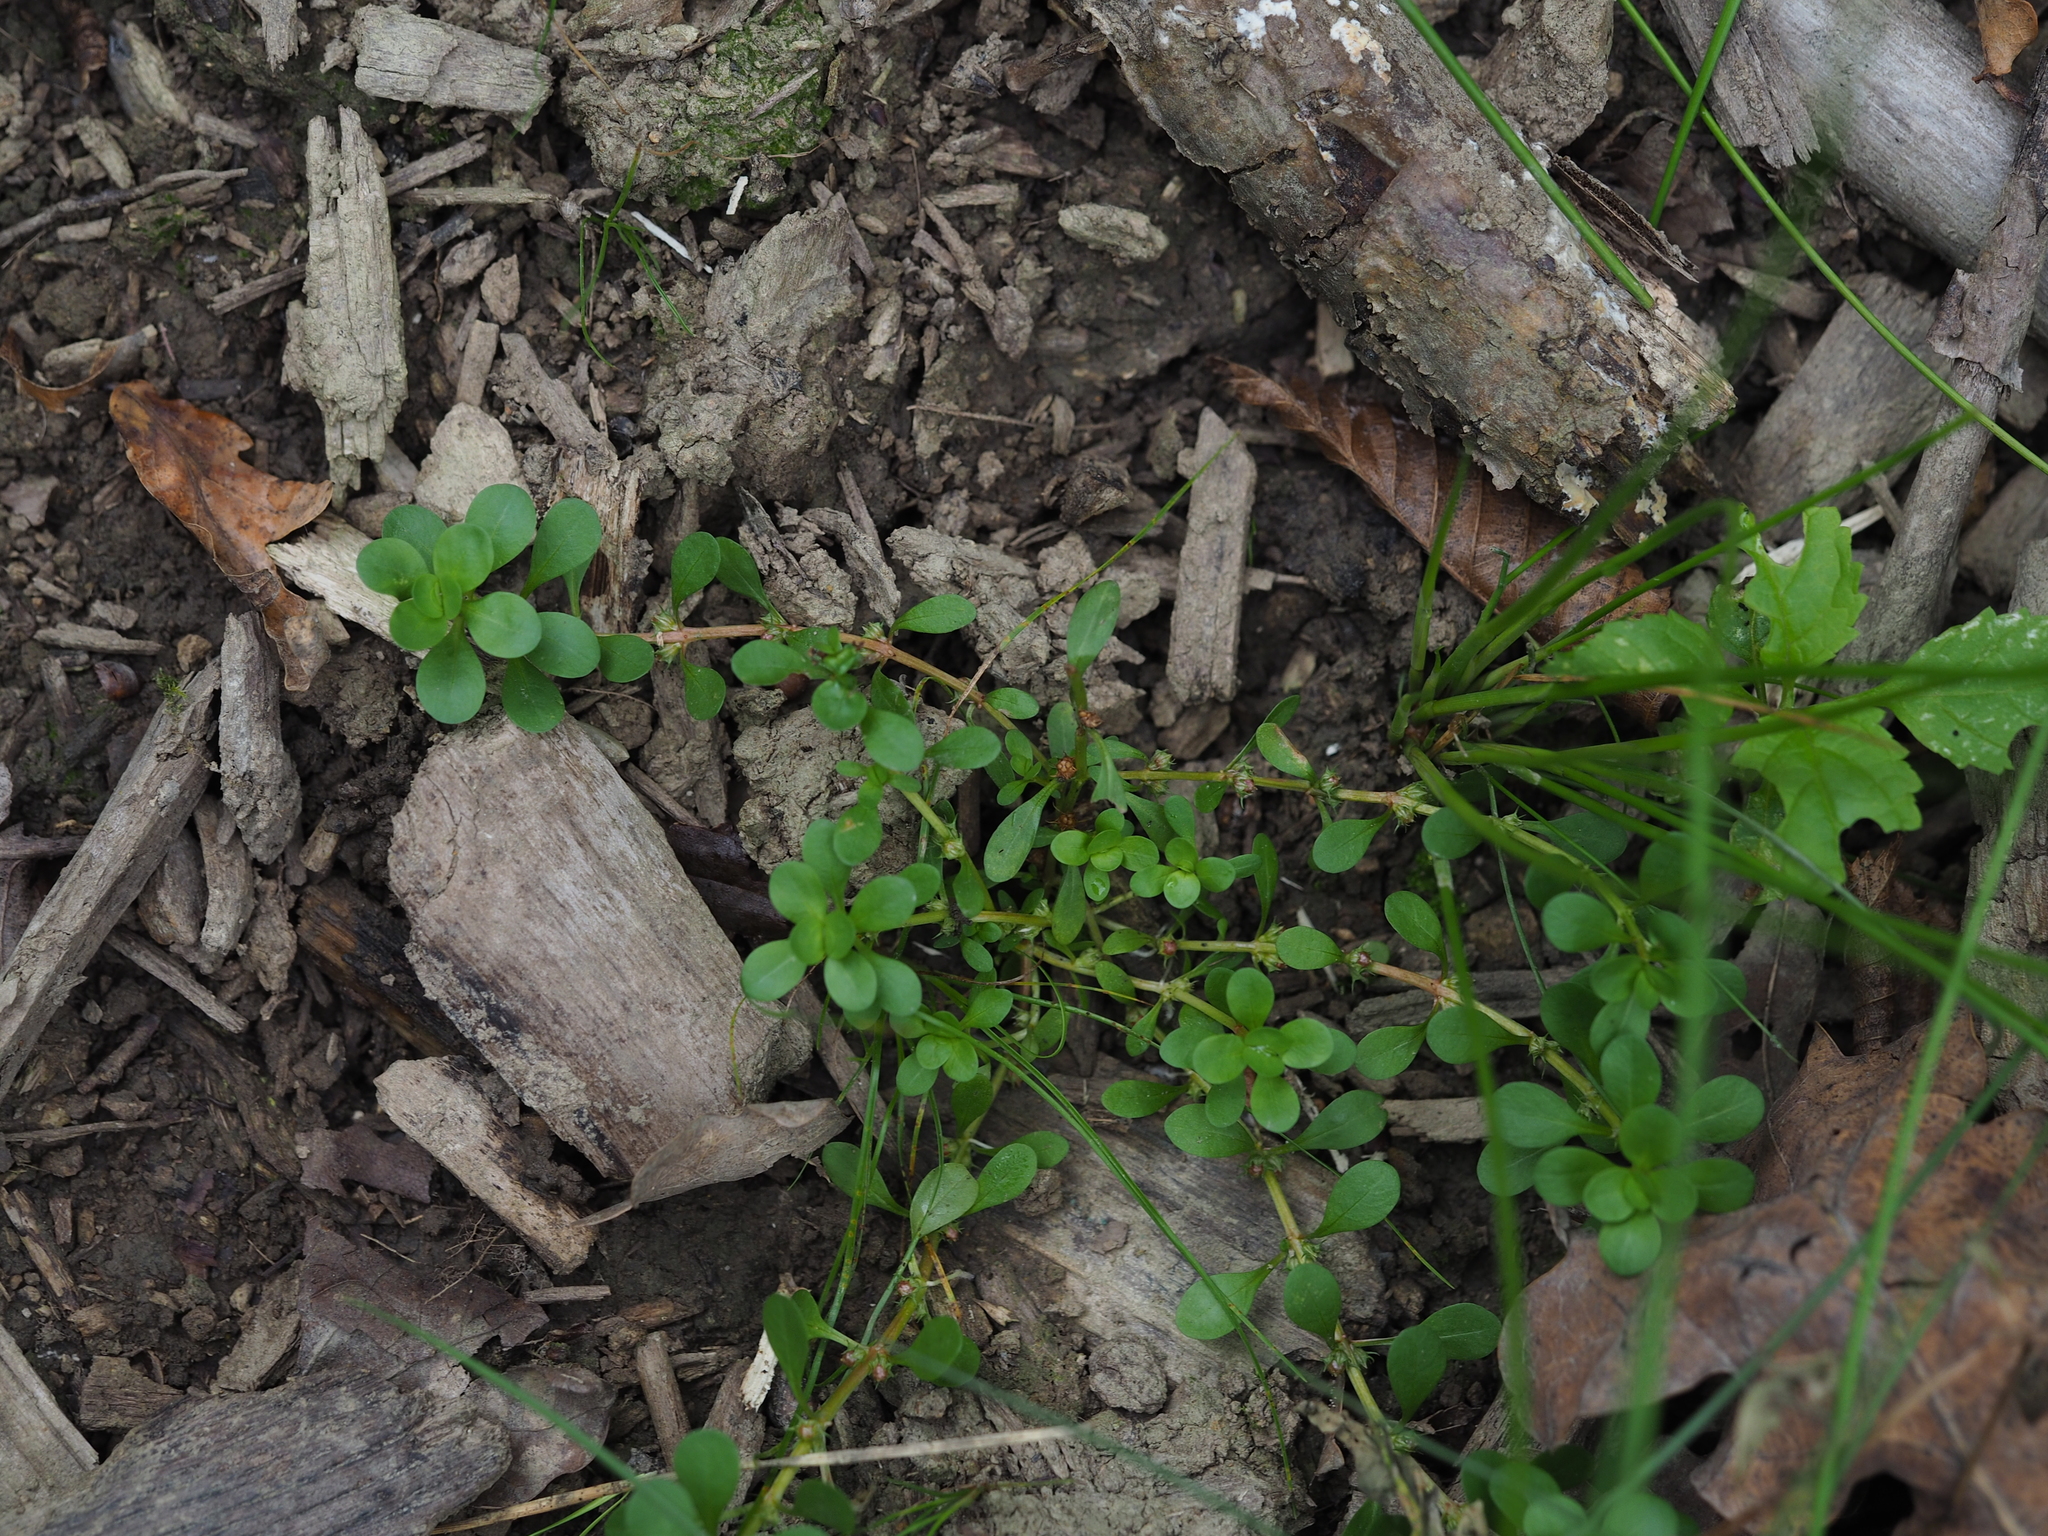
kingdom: Plantae
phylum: Tracheophyta
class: Magnoliopsida
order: Myrtales
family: Lythraceae
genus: Lythrum
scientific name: Lythrum portula
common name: Water purslane
